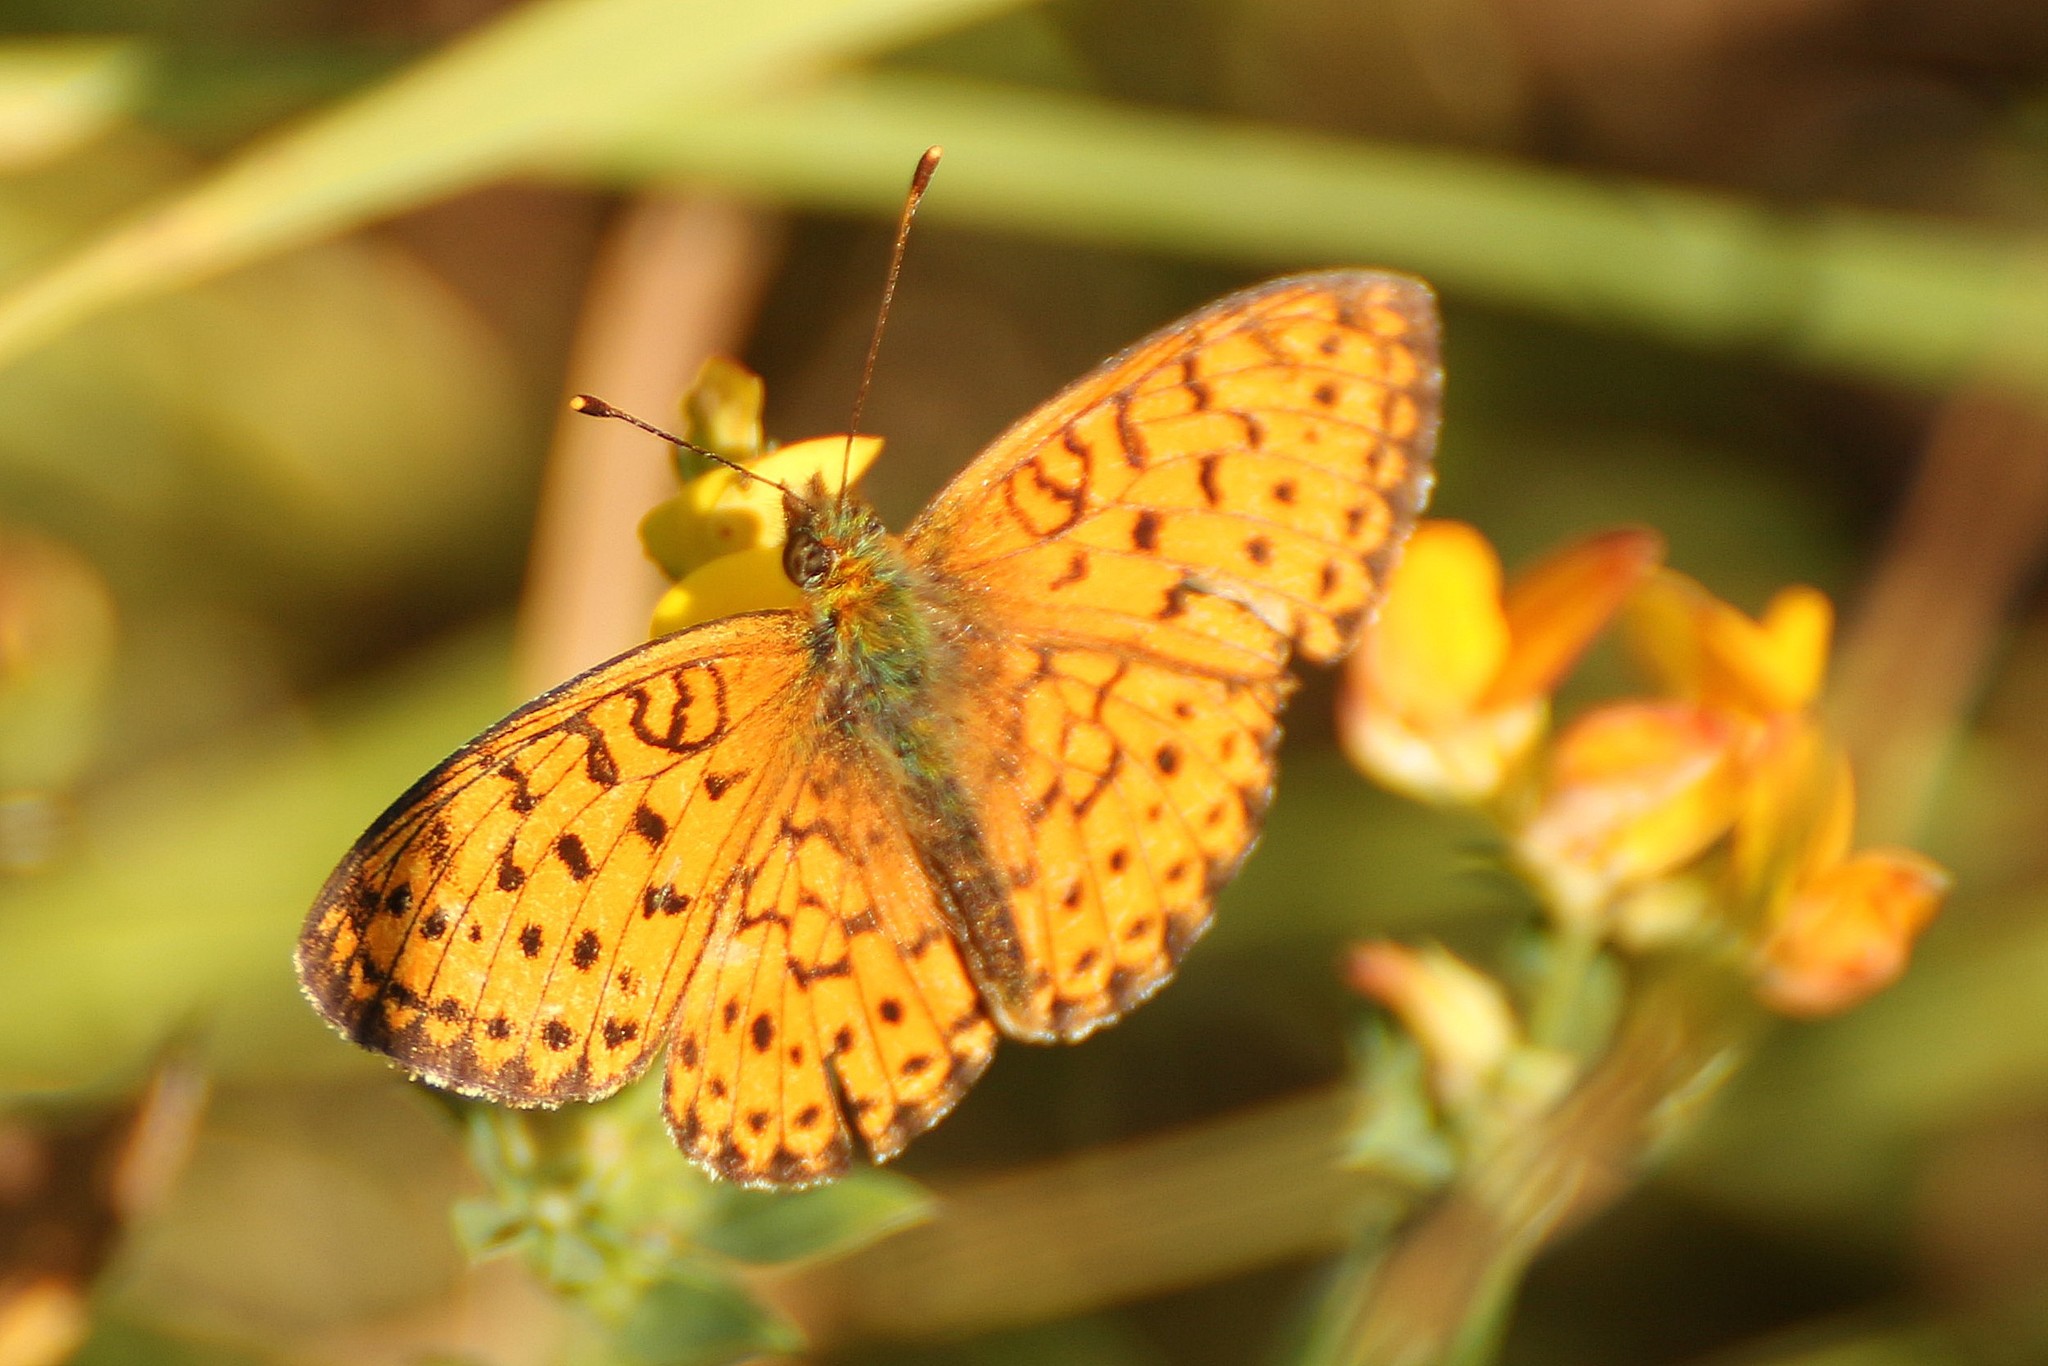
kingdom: Animalia
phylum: Arthropoda
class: Insecta
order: Lepidoptera
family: Nymphalidae
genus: Brenthis
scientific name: Brenthis ino
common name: Lesser marbled fritillary
